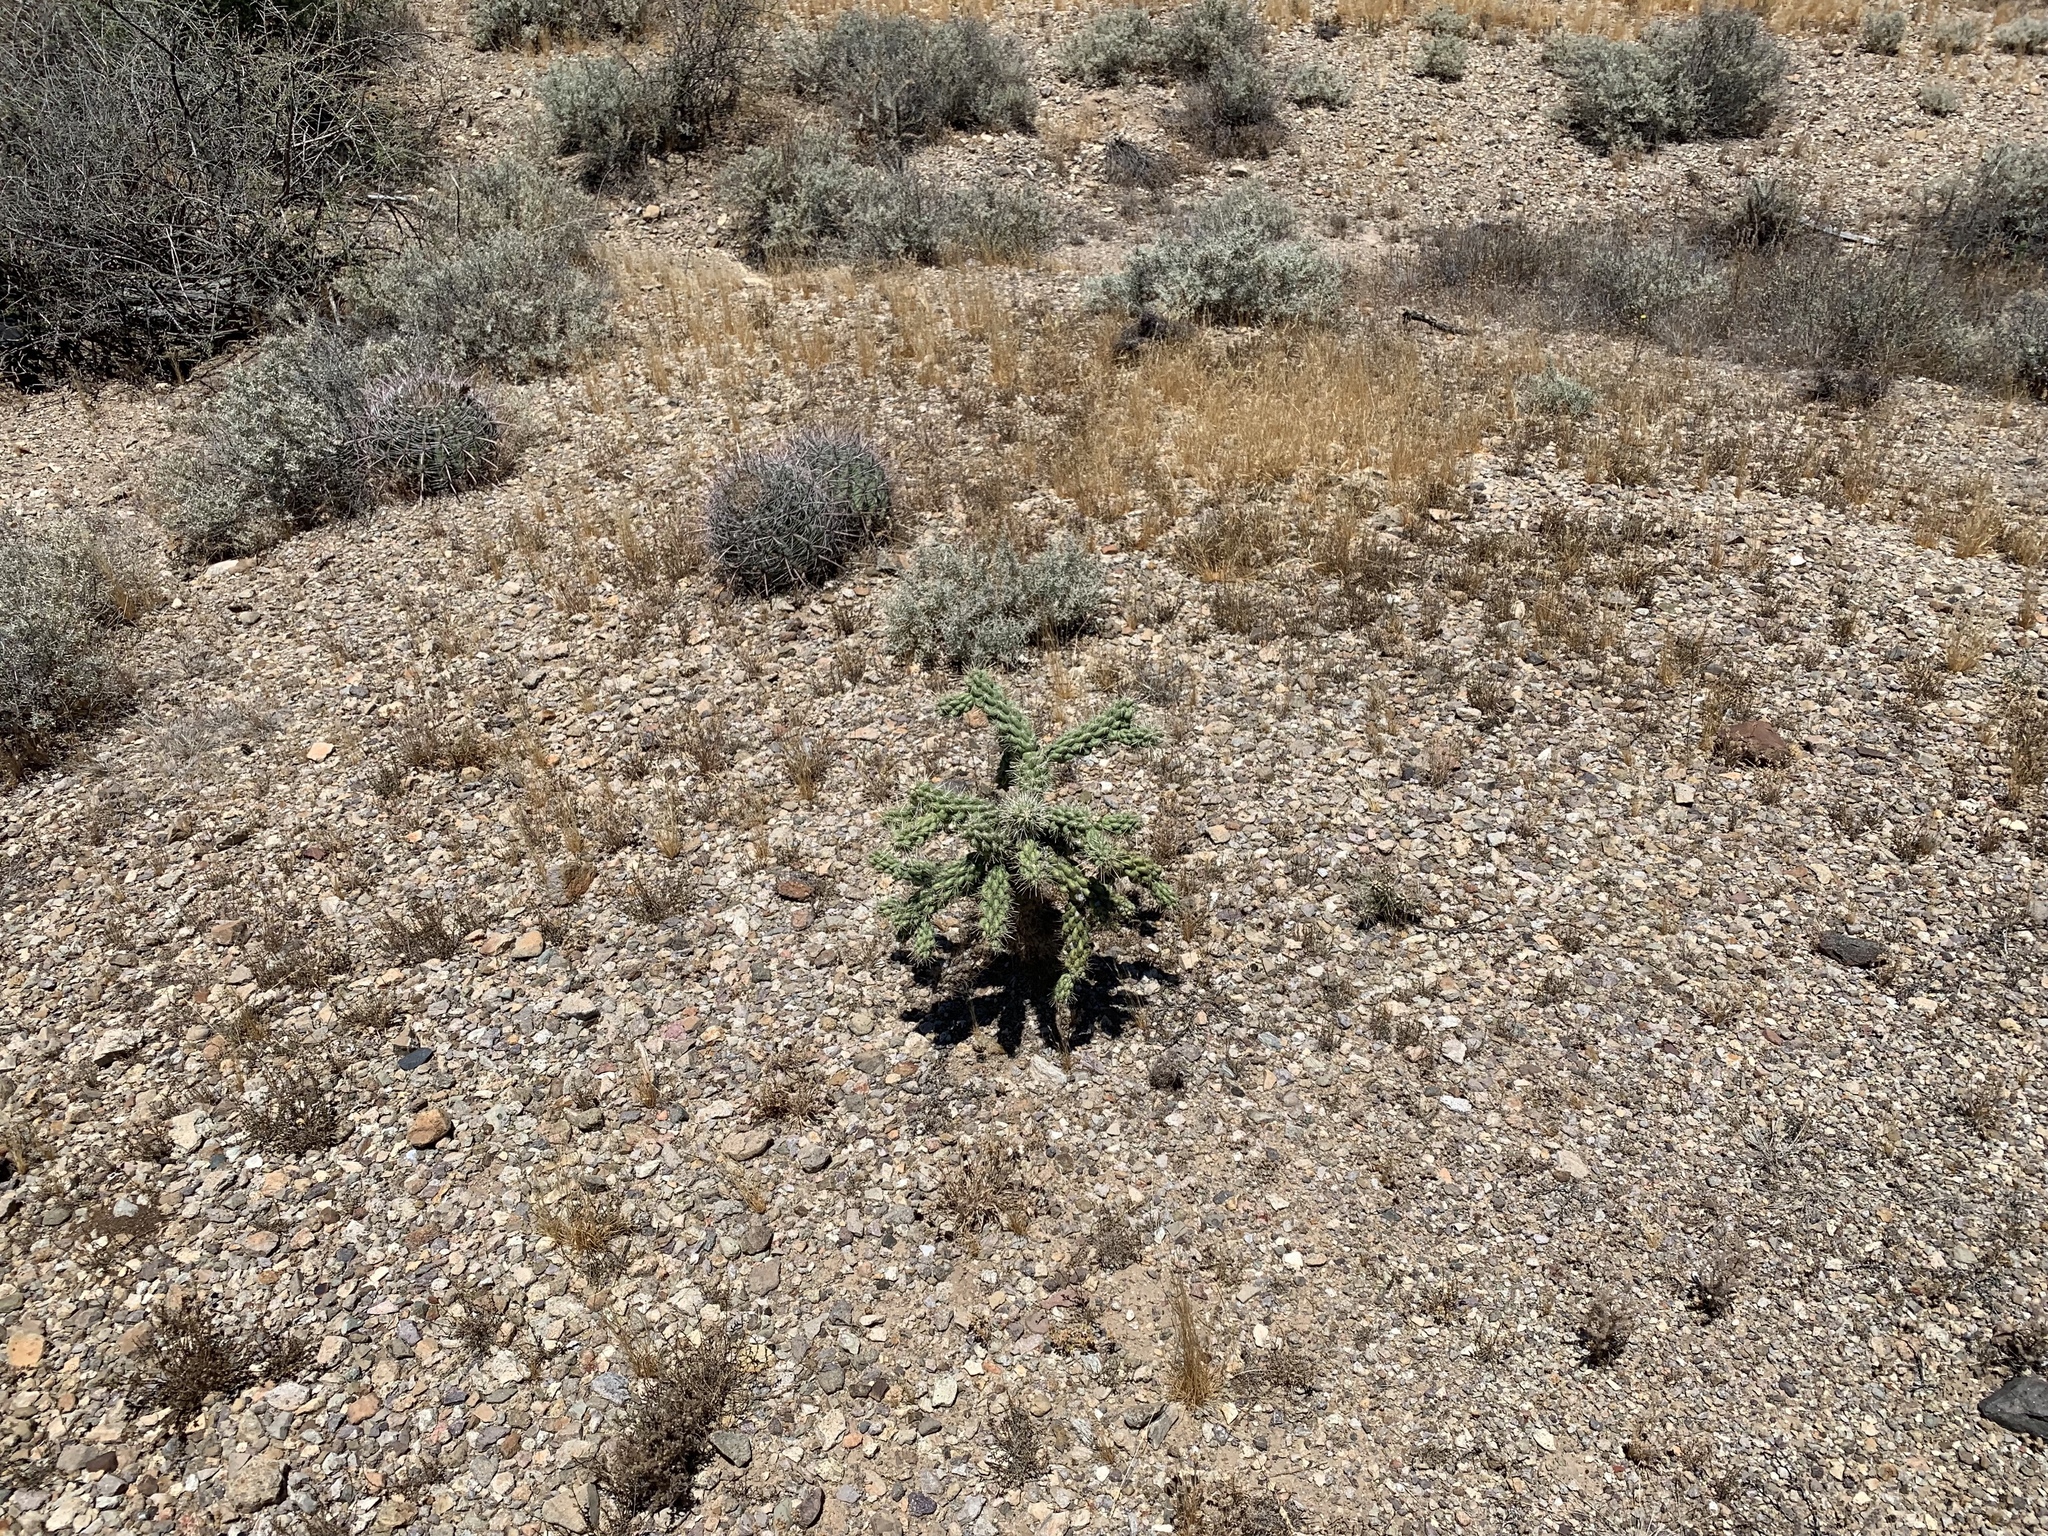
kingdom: Plantae
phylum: Tracheophyta
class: Magnoliopsida
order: Caryophyllales
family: Cactaceae
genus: Cylindropuntia
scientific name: Cylindropuntia fulgida
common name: Jumping cholla
